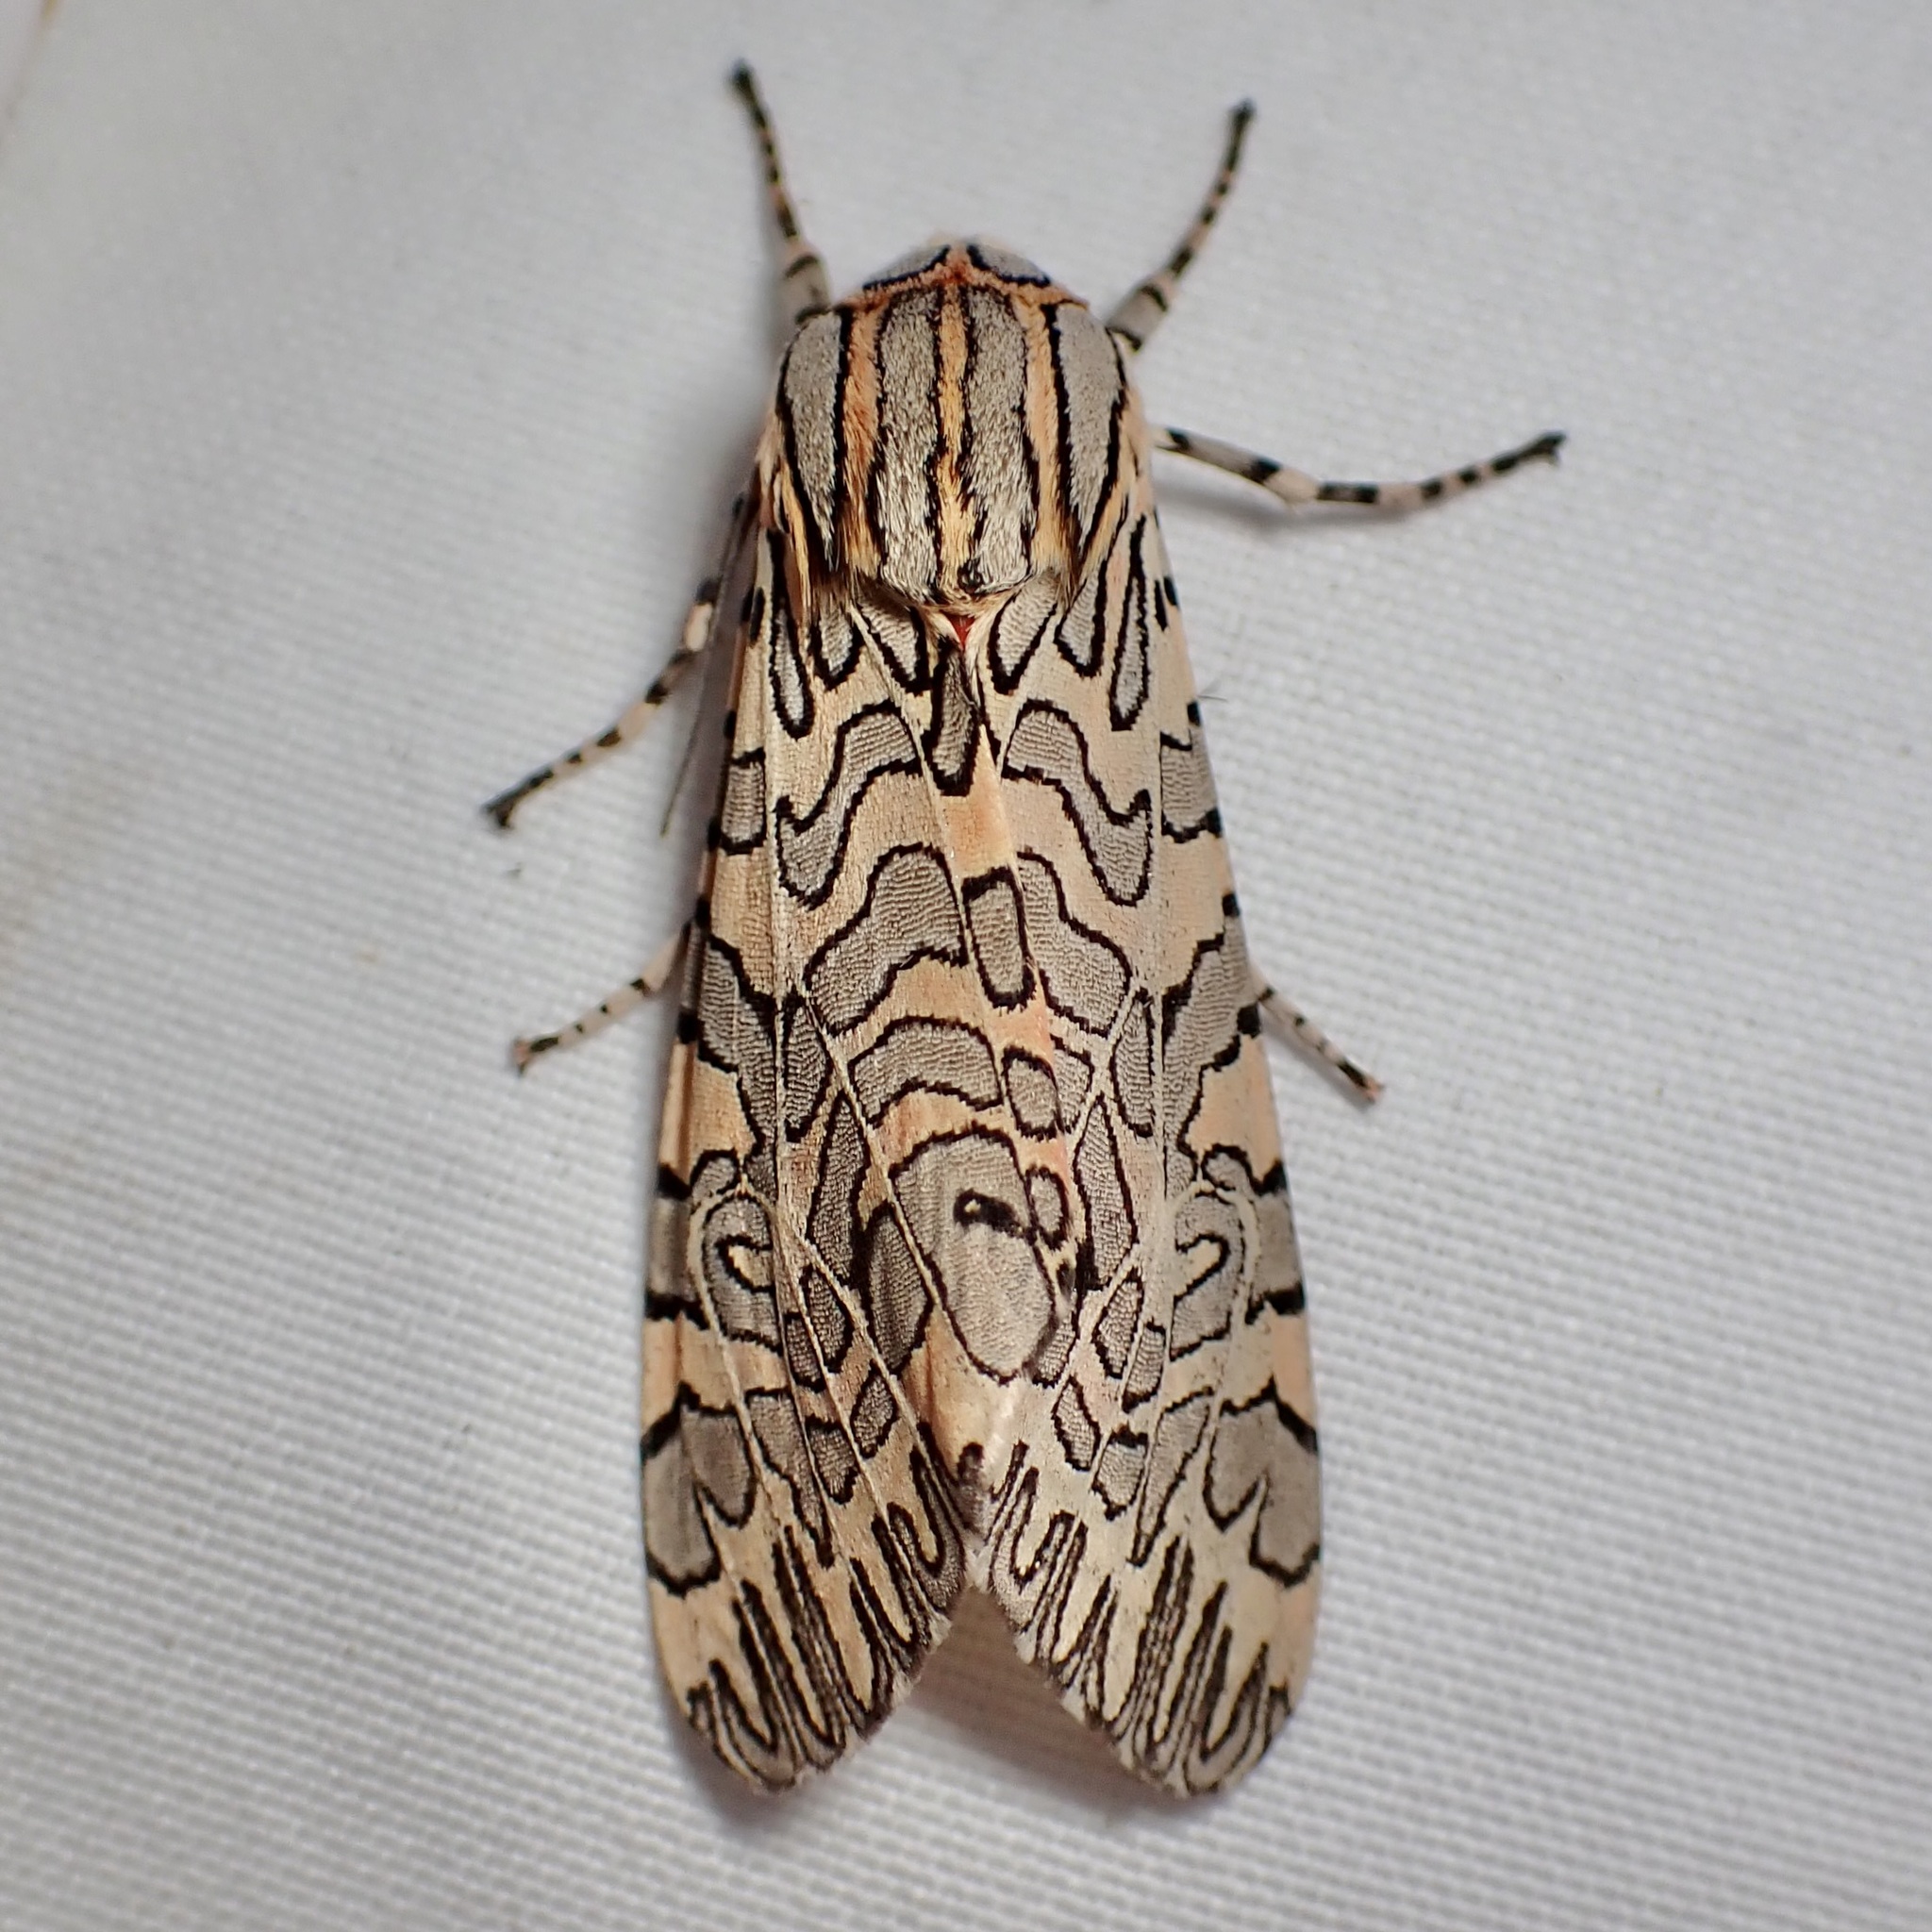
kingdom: Animalia
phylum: Arthropoda
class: Insecta
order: Lepidoptera
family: Erebidae
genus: Arachnis
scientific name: Arachnis citra
